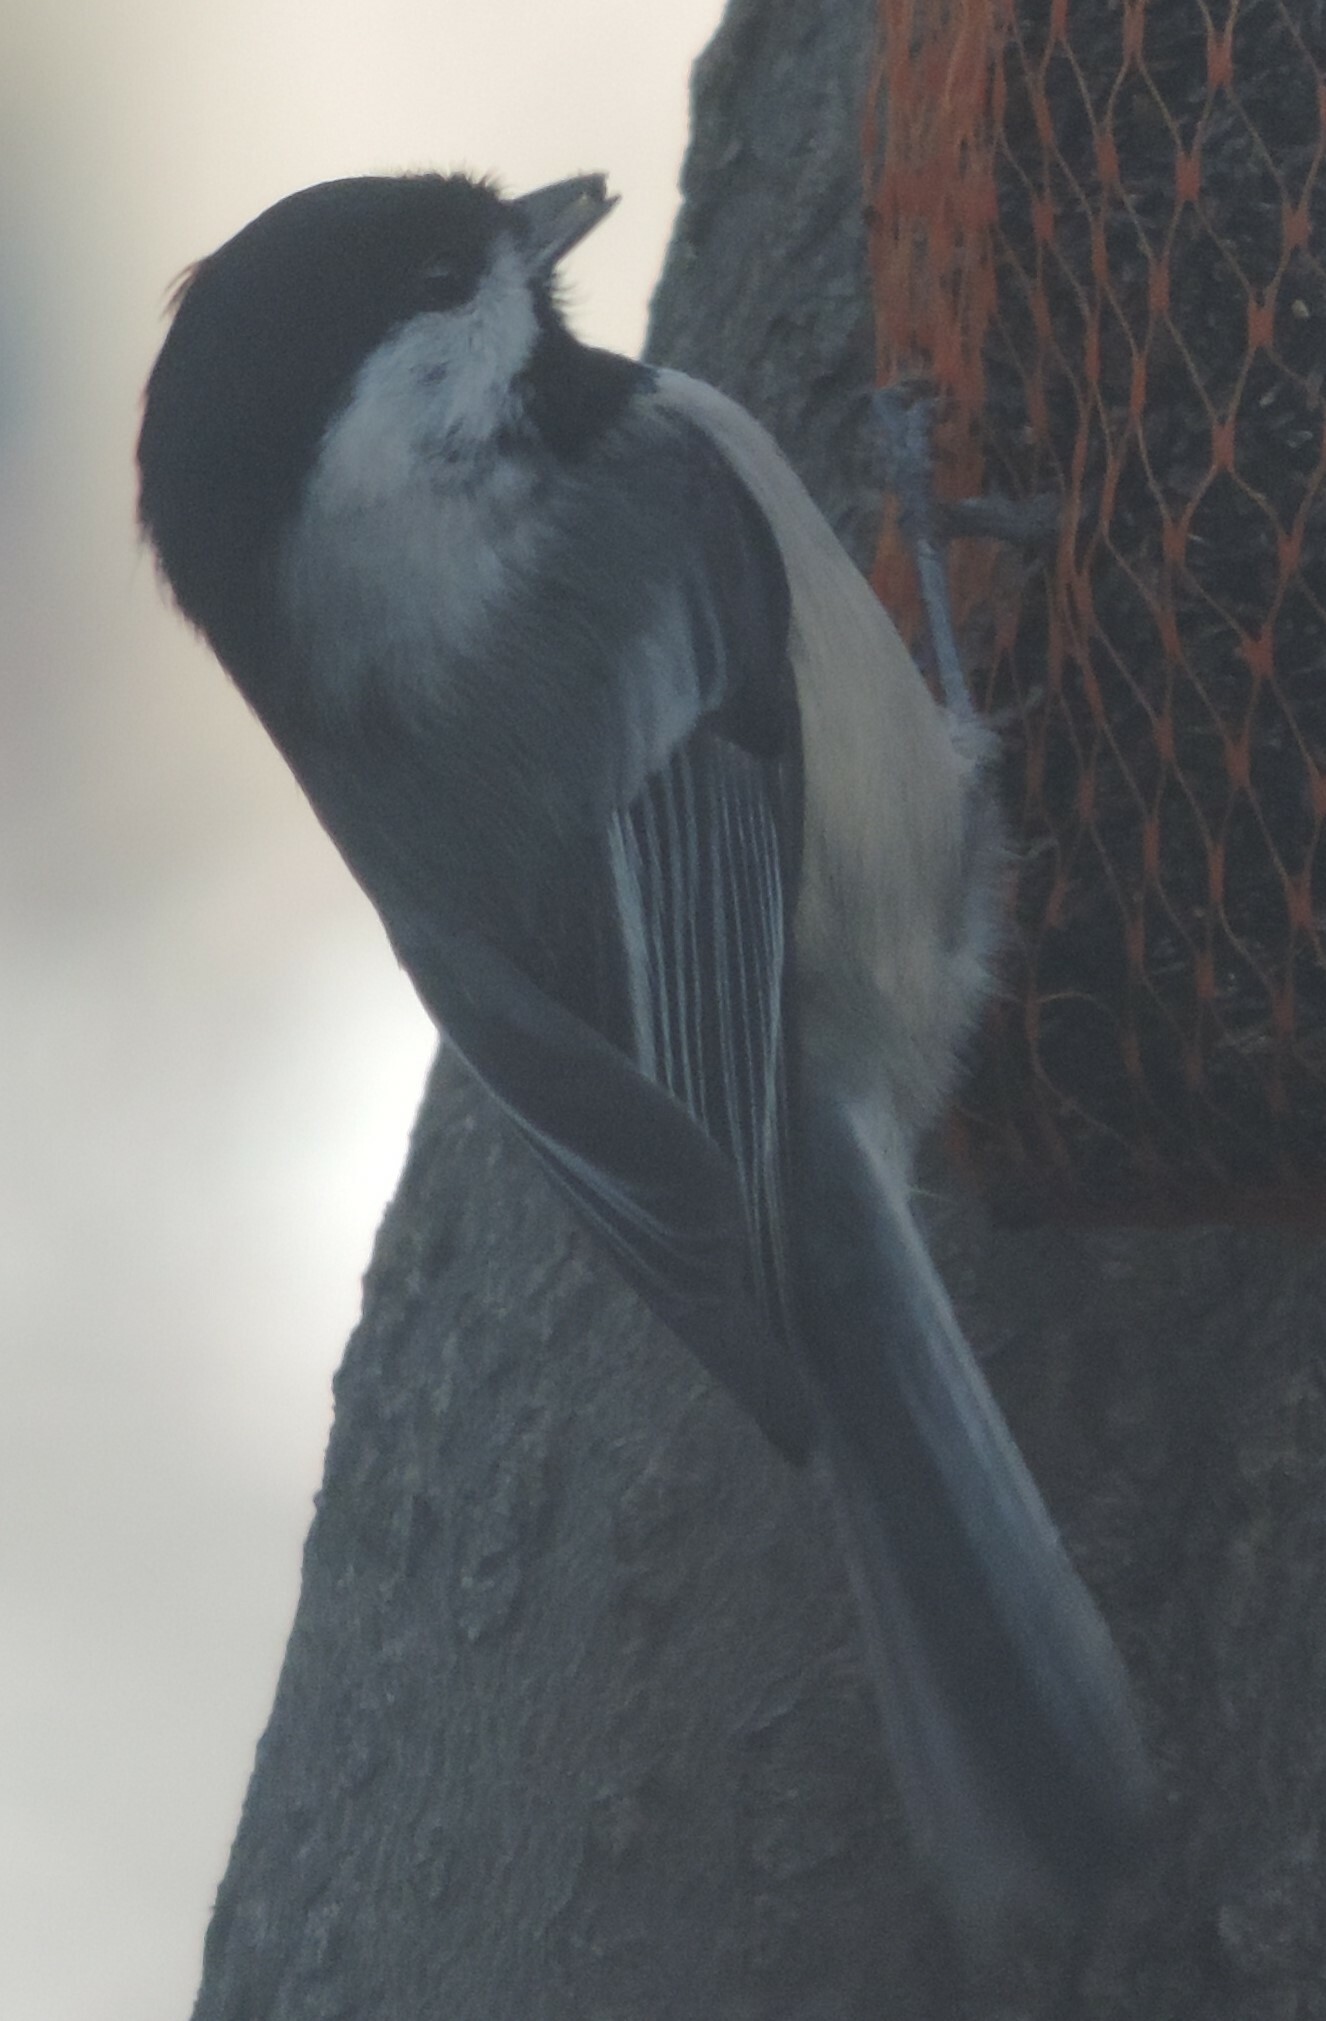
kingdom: Animalia
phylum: Chordata
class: Aves
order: Passeriformes
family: Paridae
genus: Poecile
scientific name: Poecile atricapillus
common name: Black-capped chickadee
